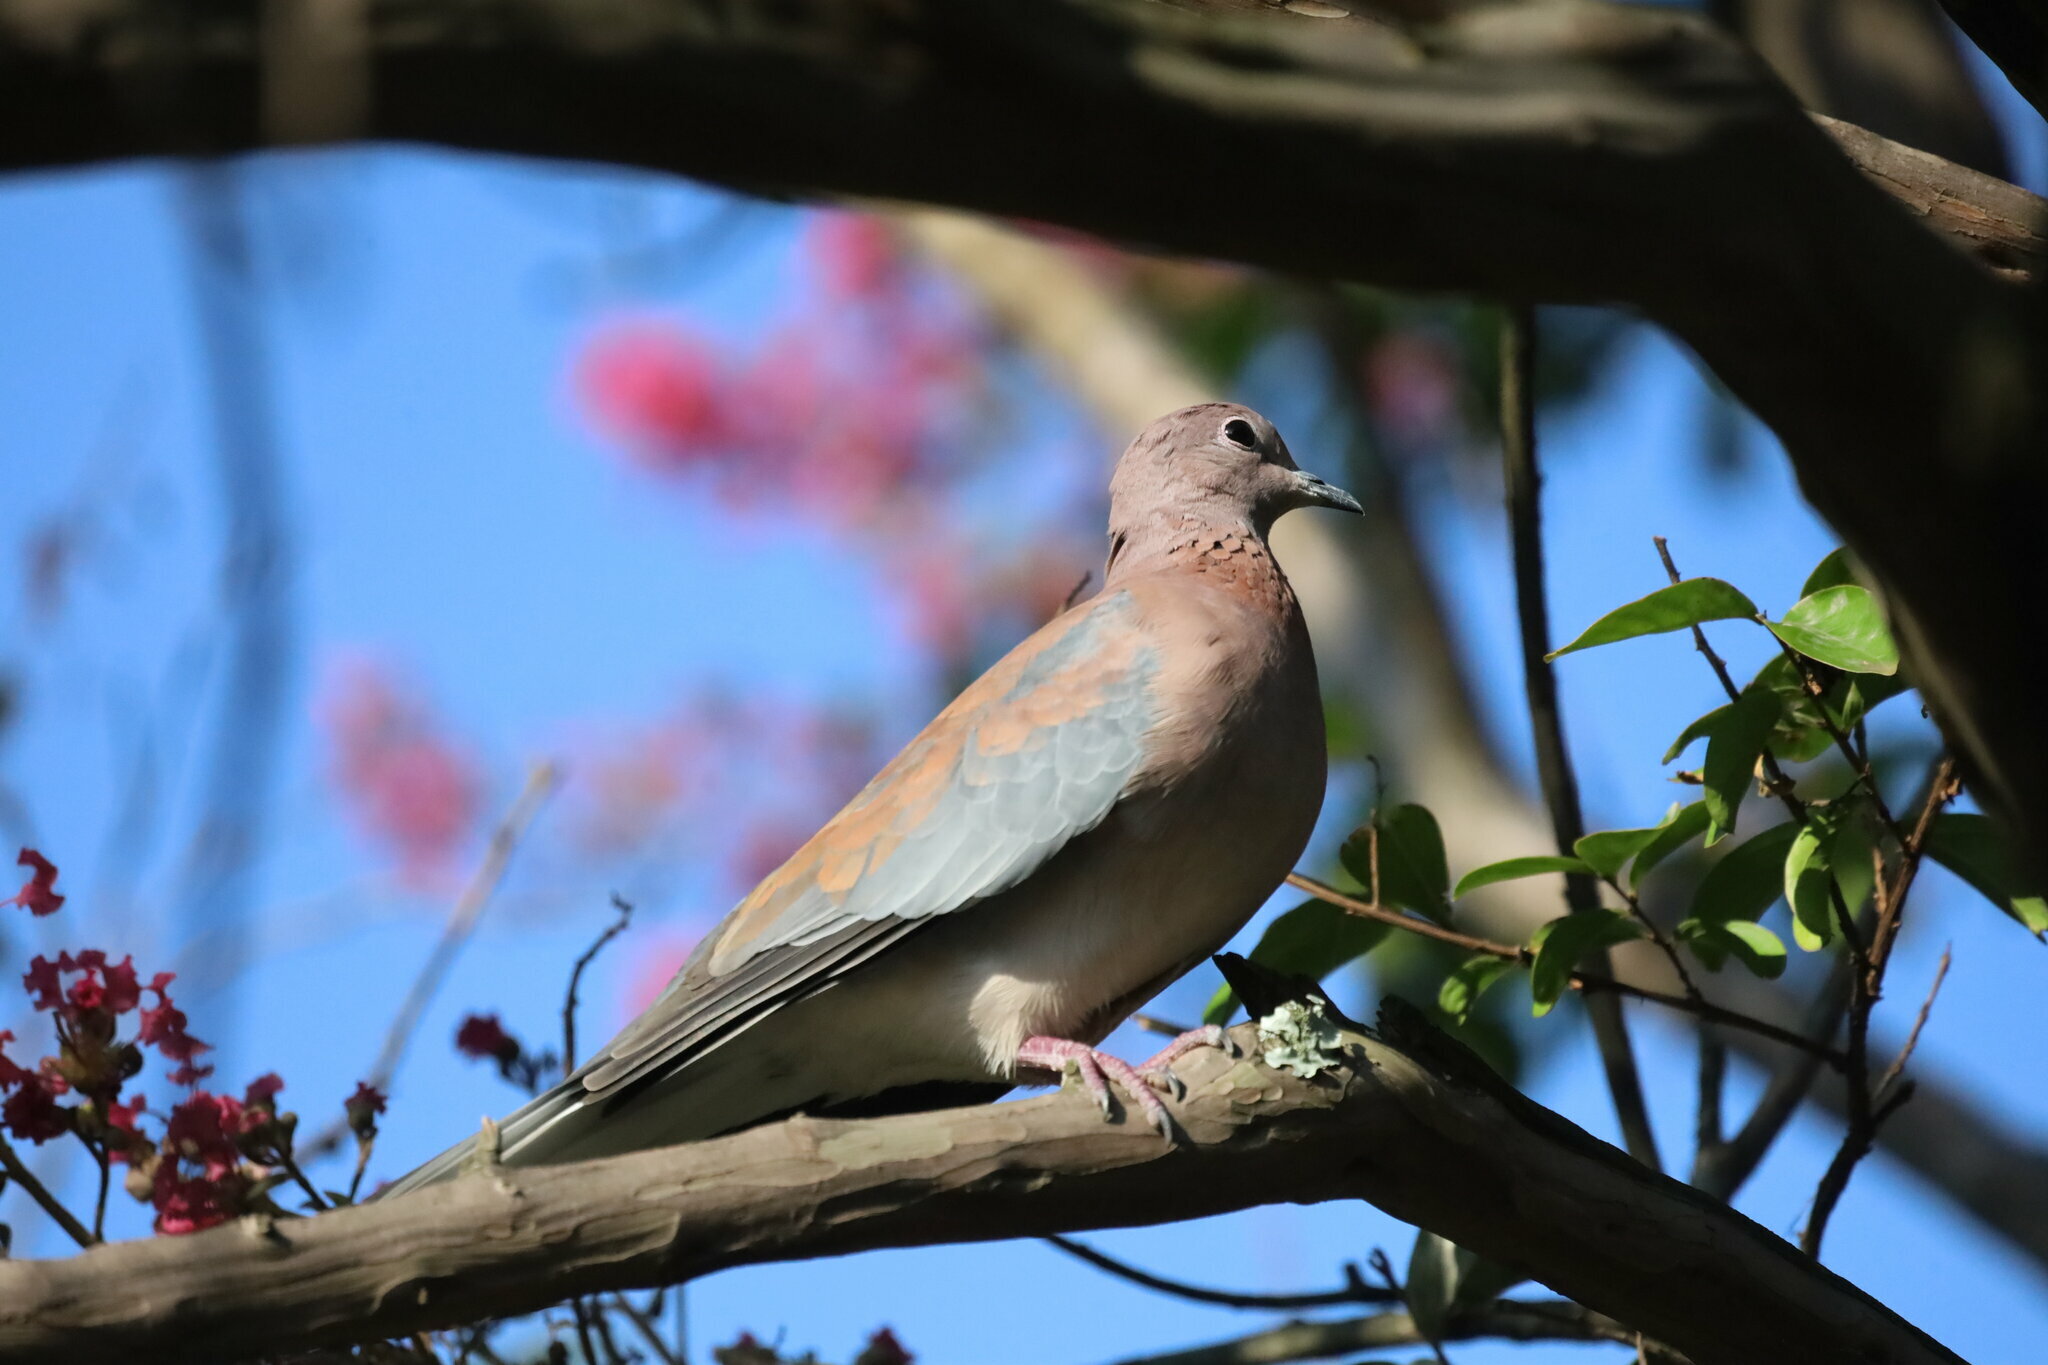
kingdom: Animalia
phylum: Chordata
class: Aves
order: Columbiformes
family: Columbidae
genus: Spilopelia
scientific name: Spilopelia senegalensis
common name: Laughing dove
